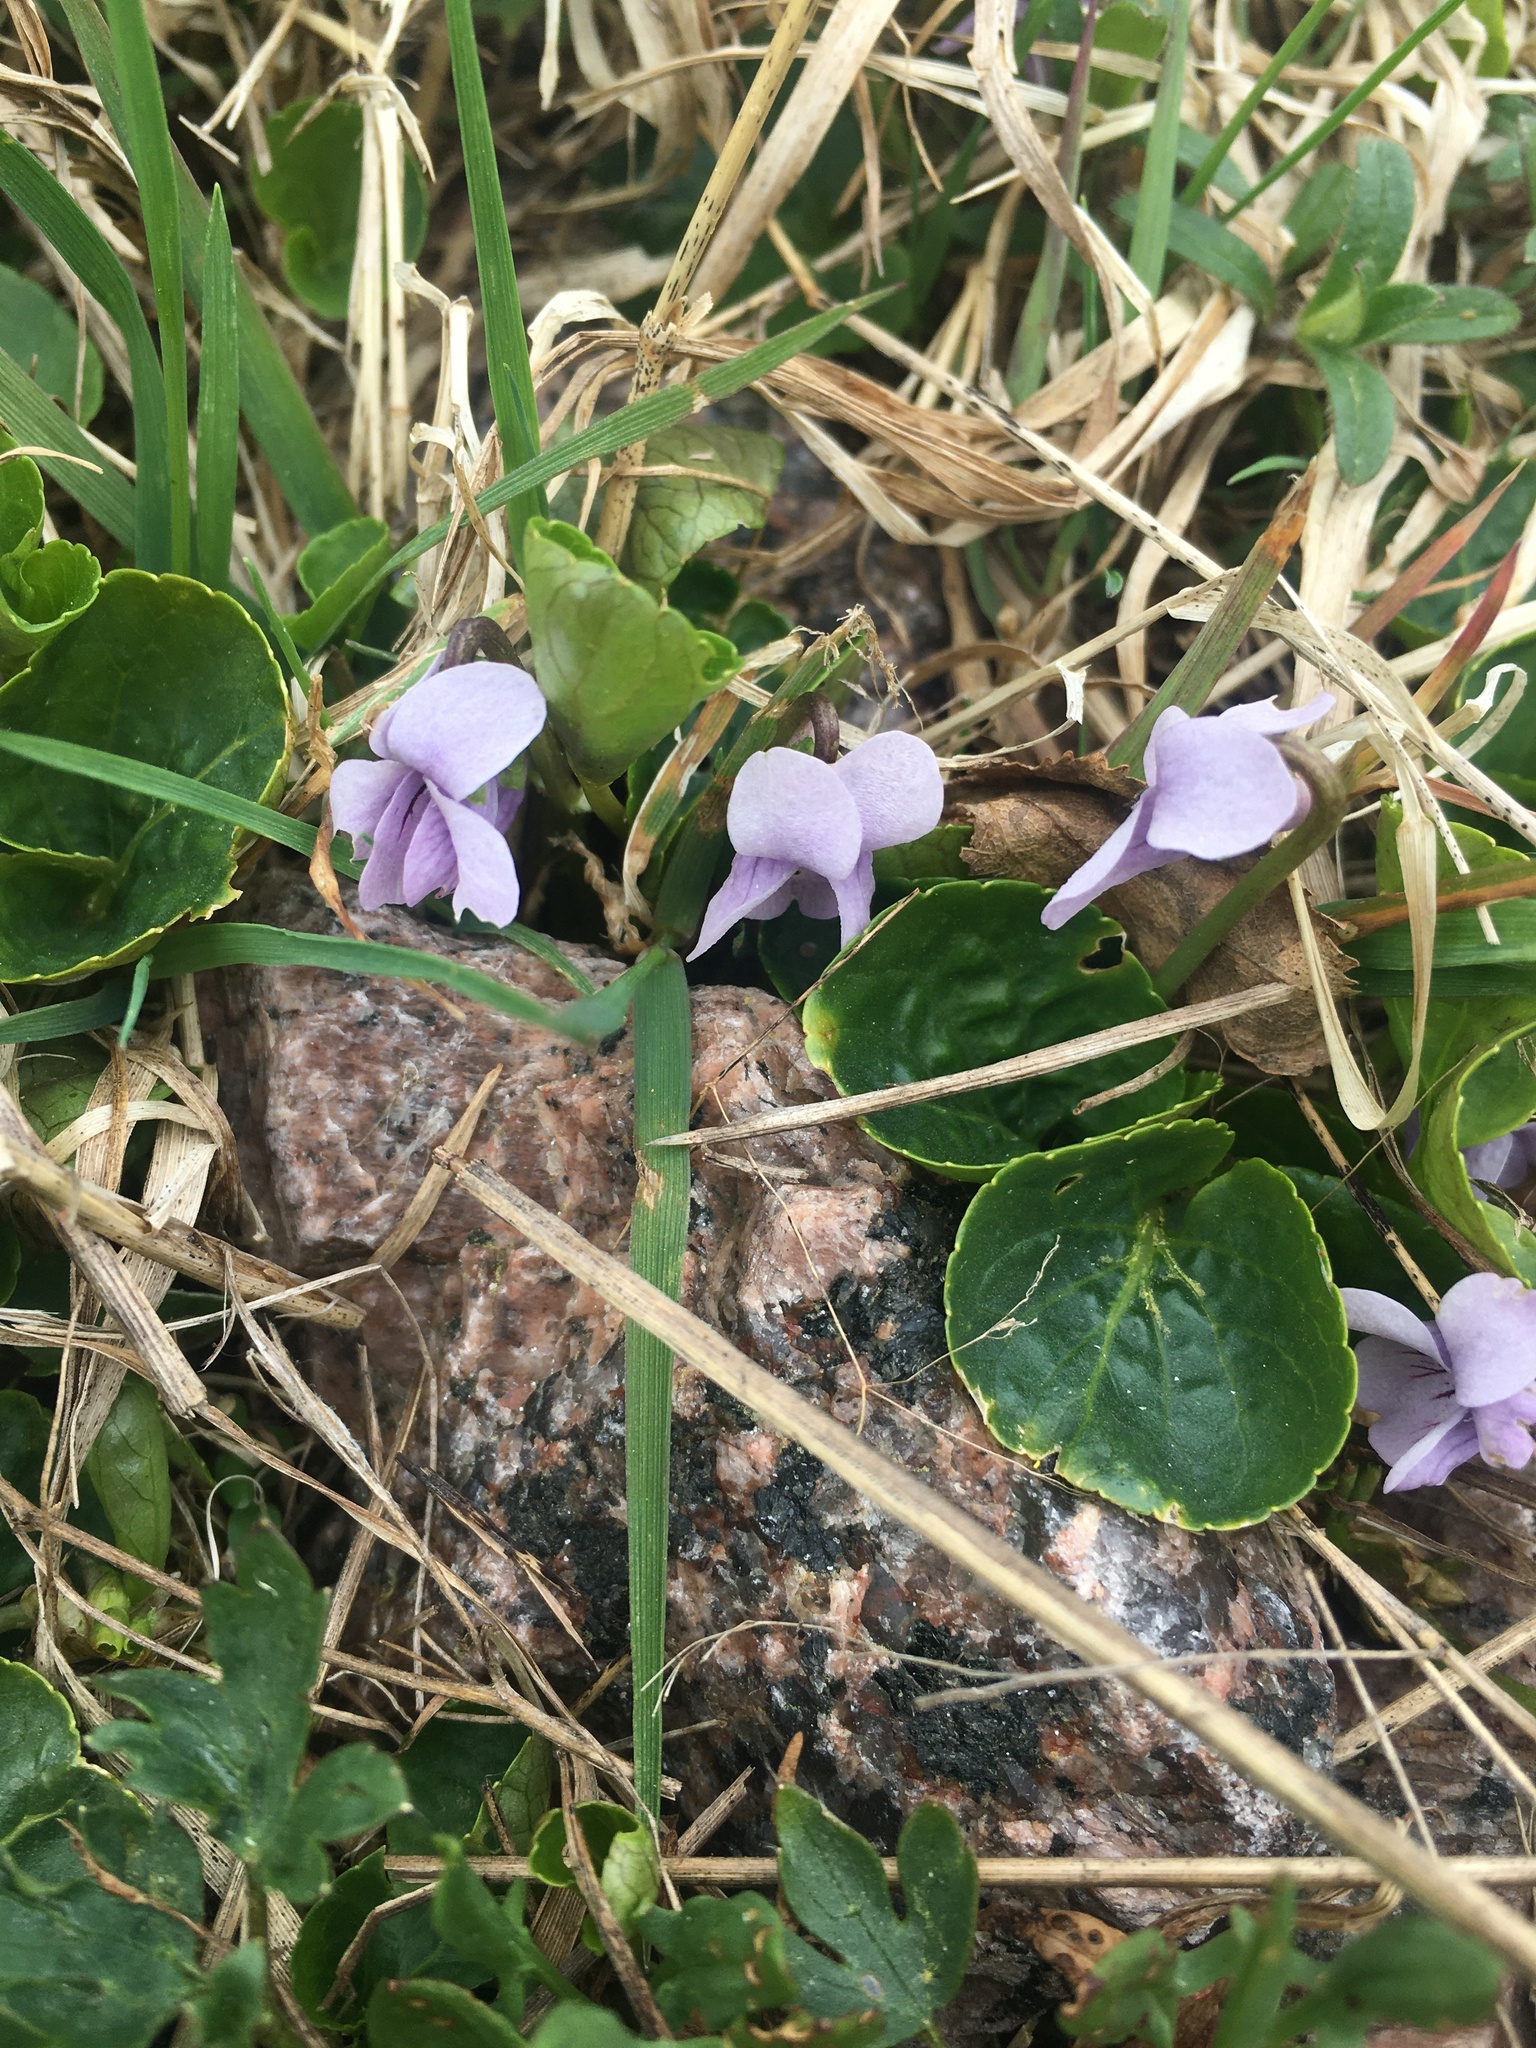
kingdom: Plantae
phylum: Tracheophyta
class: Magnoliopsida
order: Malpighiales
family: Violaceae
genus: Viola
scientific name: Viola palustris
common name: Marsh violet
